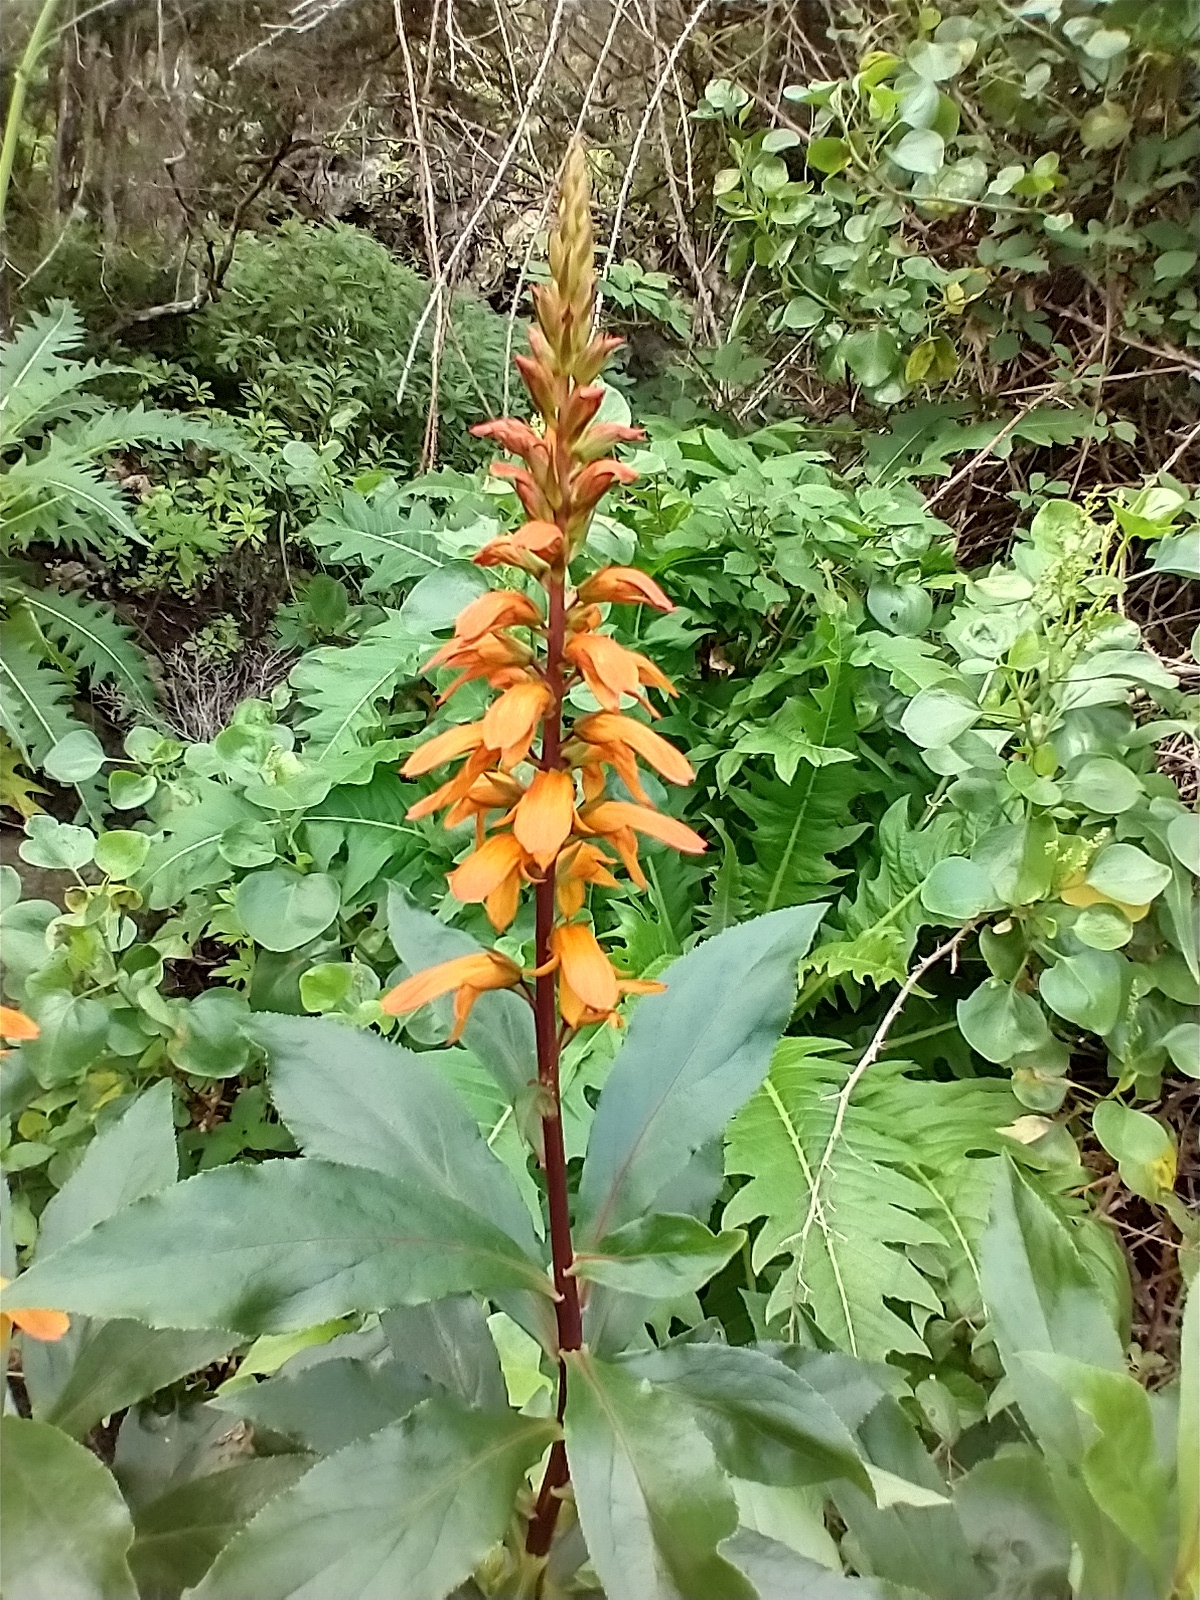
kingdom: Plantae
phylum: Tracheophyta
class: Magnoliopsida
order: Lamiales
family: Plantaginaceae
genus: Digitalis
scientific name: Digitalis canariensis
